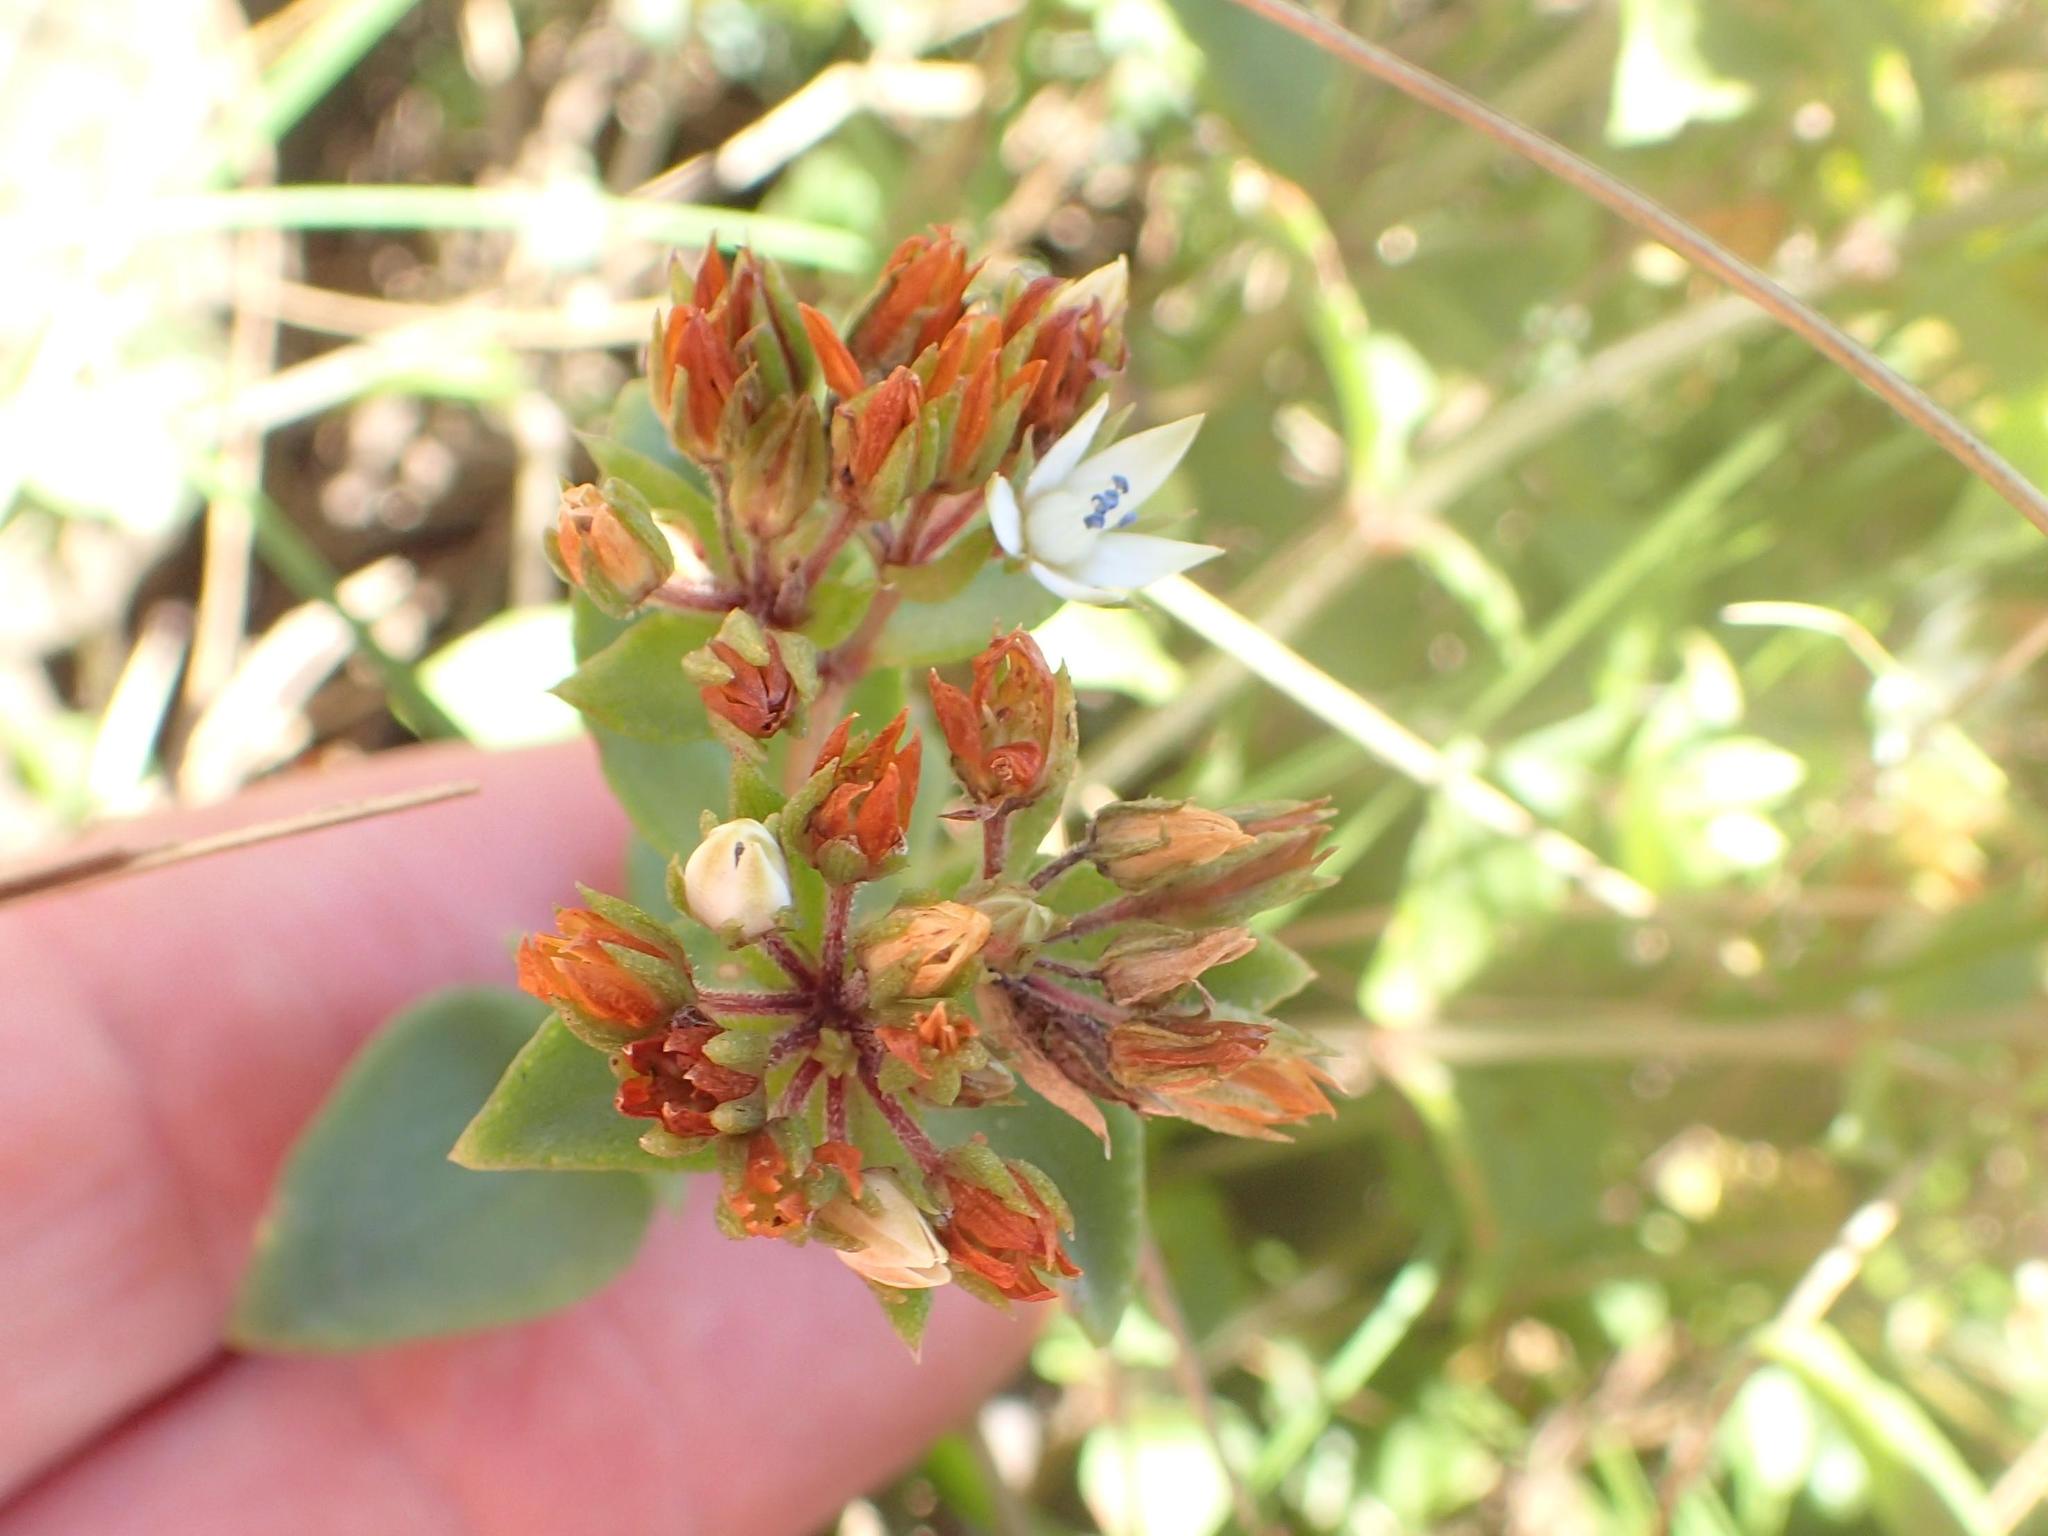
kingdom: Plantae
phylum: Tracheophyta
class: Magnoliopsida
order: Saxifragales
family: Crassulaceae
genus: Crassula
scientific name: Crassula pellucida
